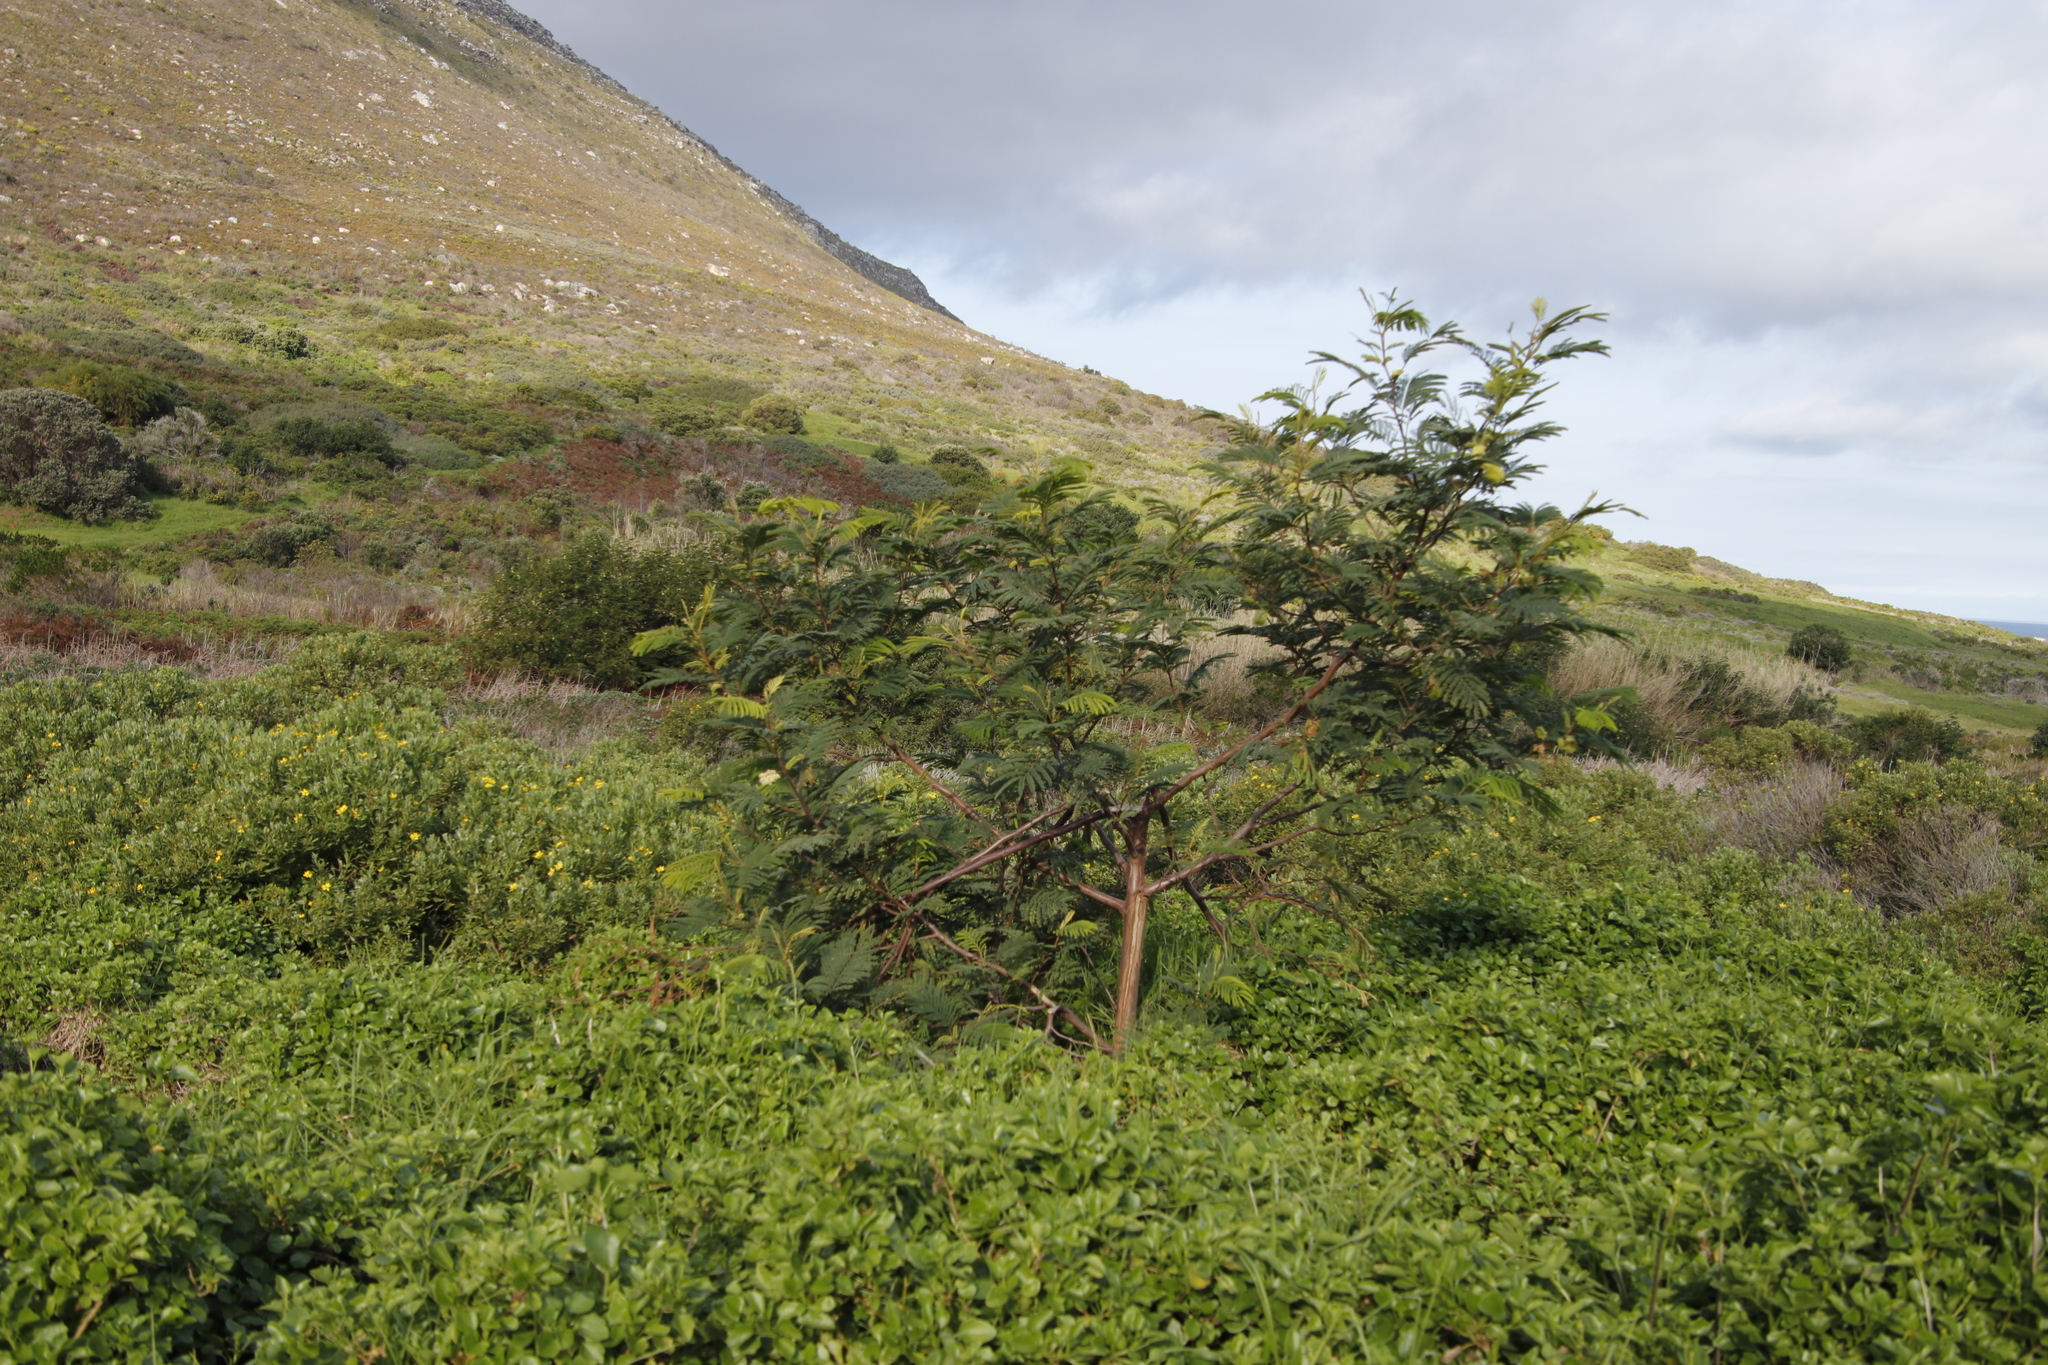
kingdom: Plantae
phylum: Tracheophyta
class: Magnoliopsida
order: Fabales
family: Fabaceae
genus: Paraserianthes
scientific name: Paraserianthes lophantha
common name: Plume albizia
